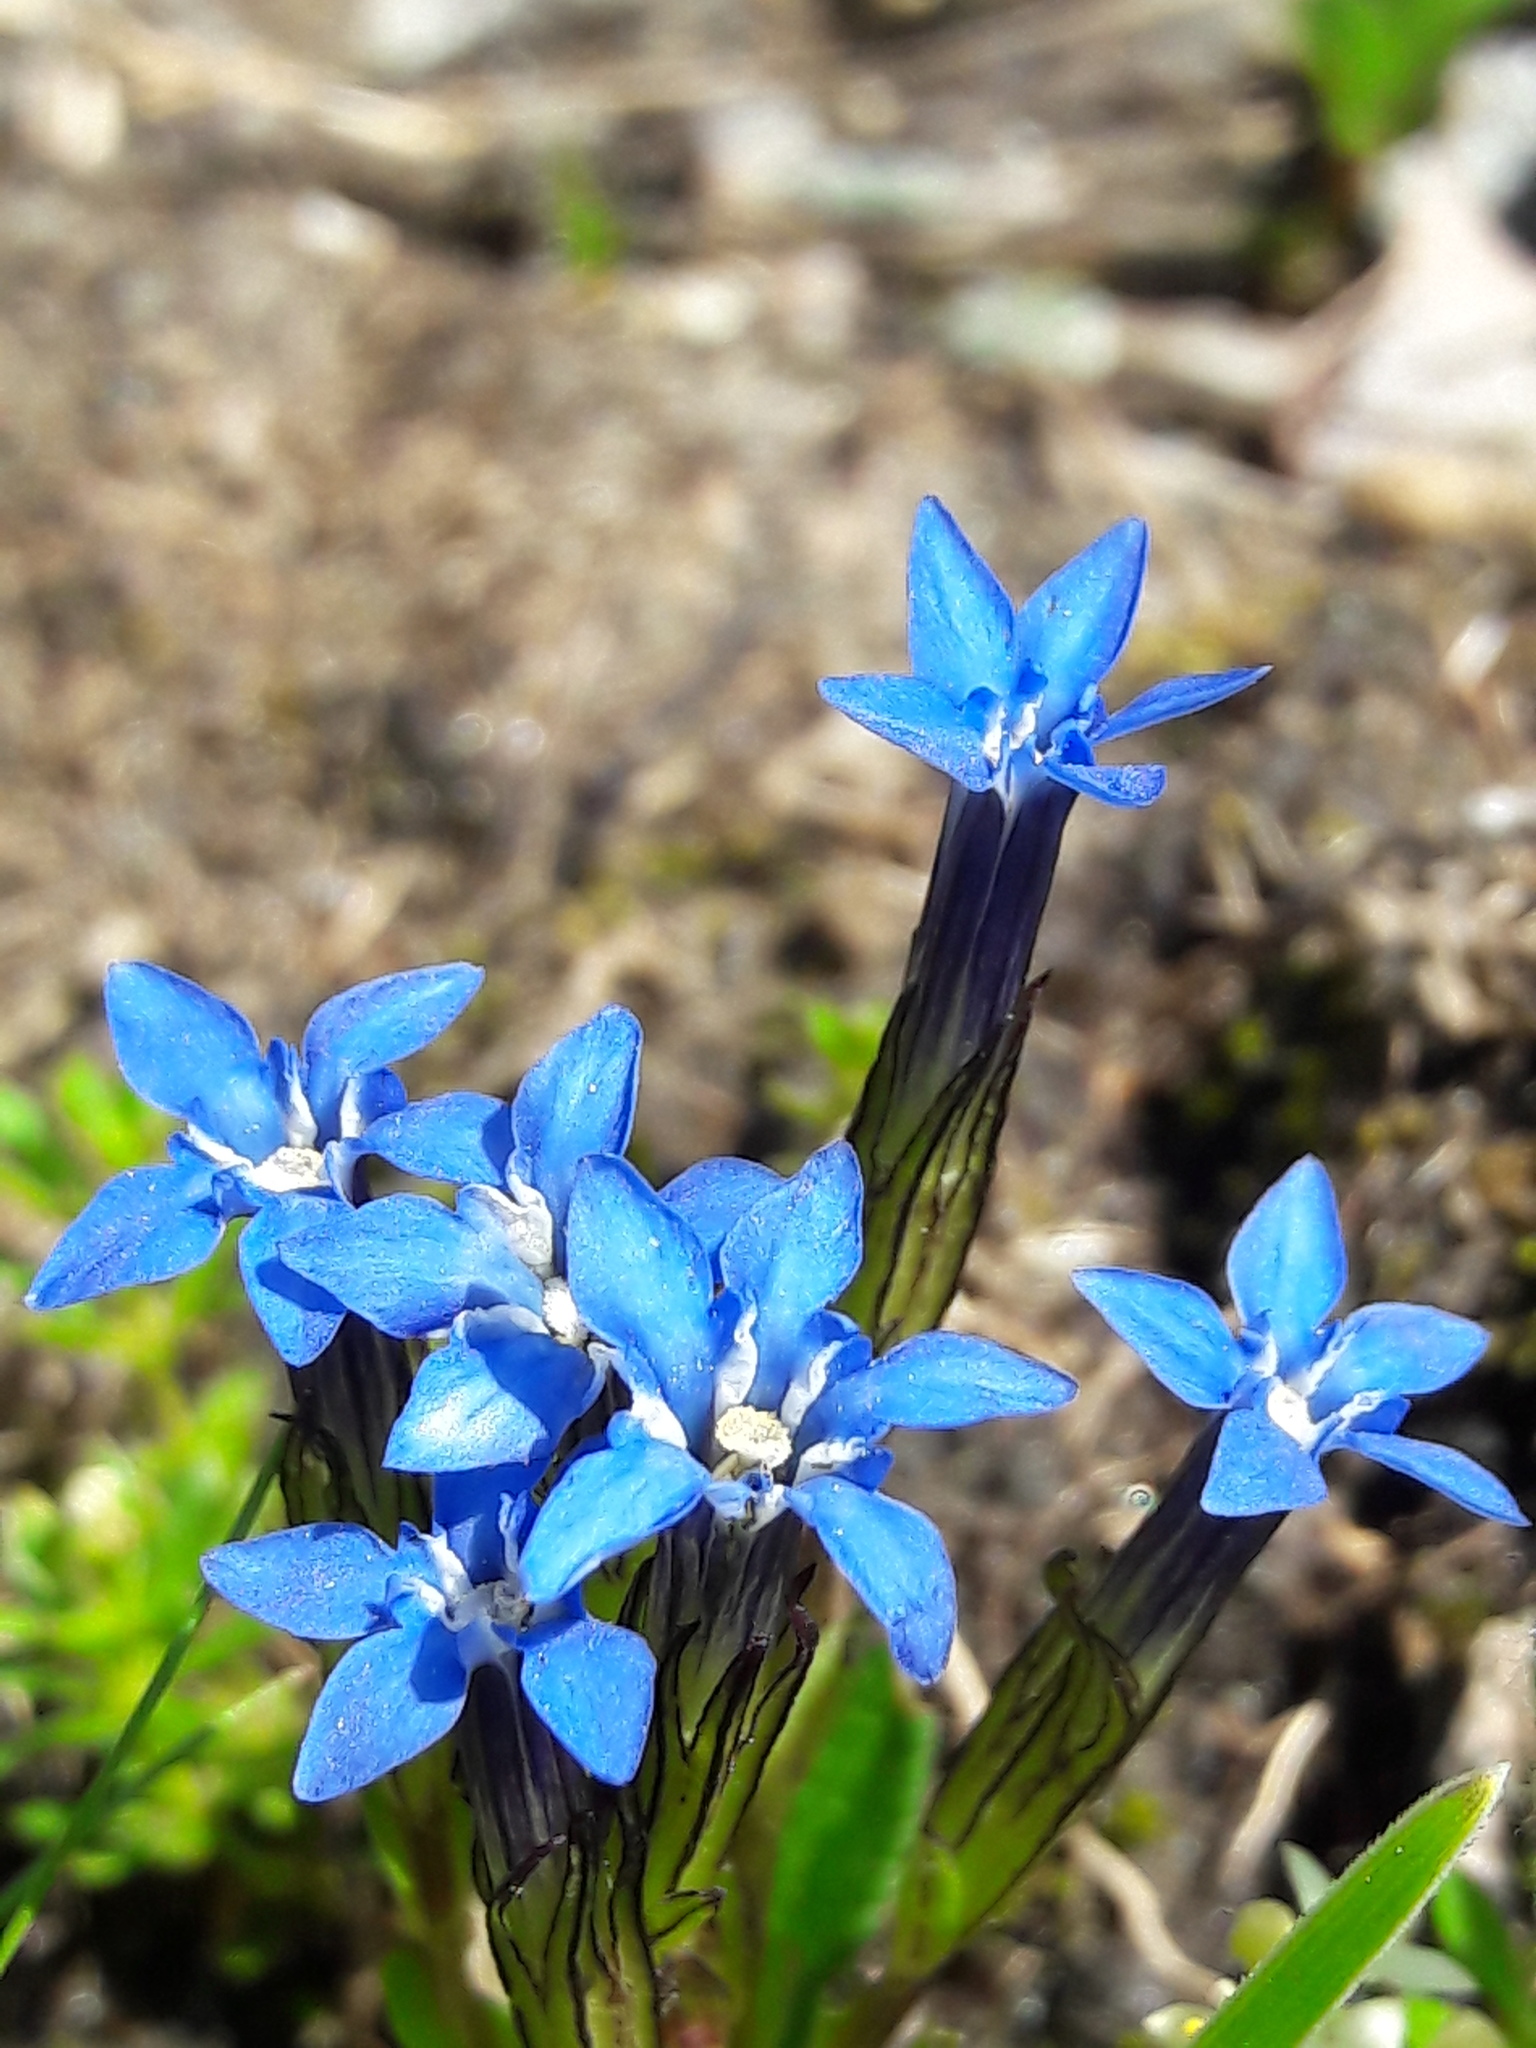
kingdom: Plantae
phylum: Tracheophyta
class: Magnoliopsida
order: Gentianales
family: Gentianaceae
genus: Gentiana
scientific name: Gentiana nivalis
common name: Alpine gentian
